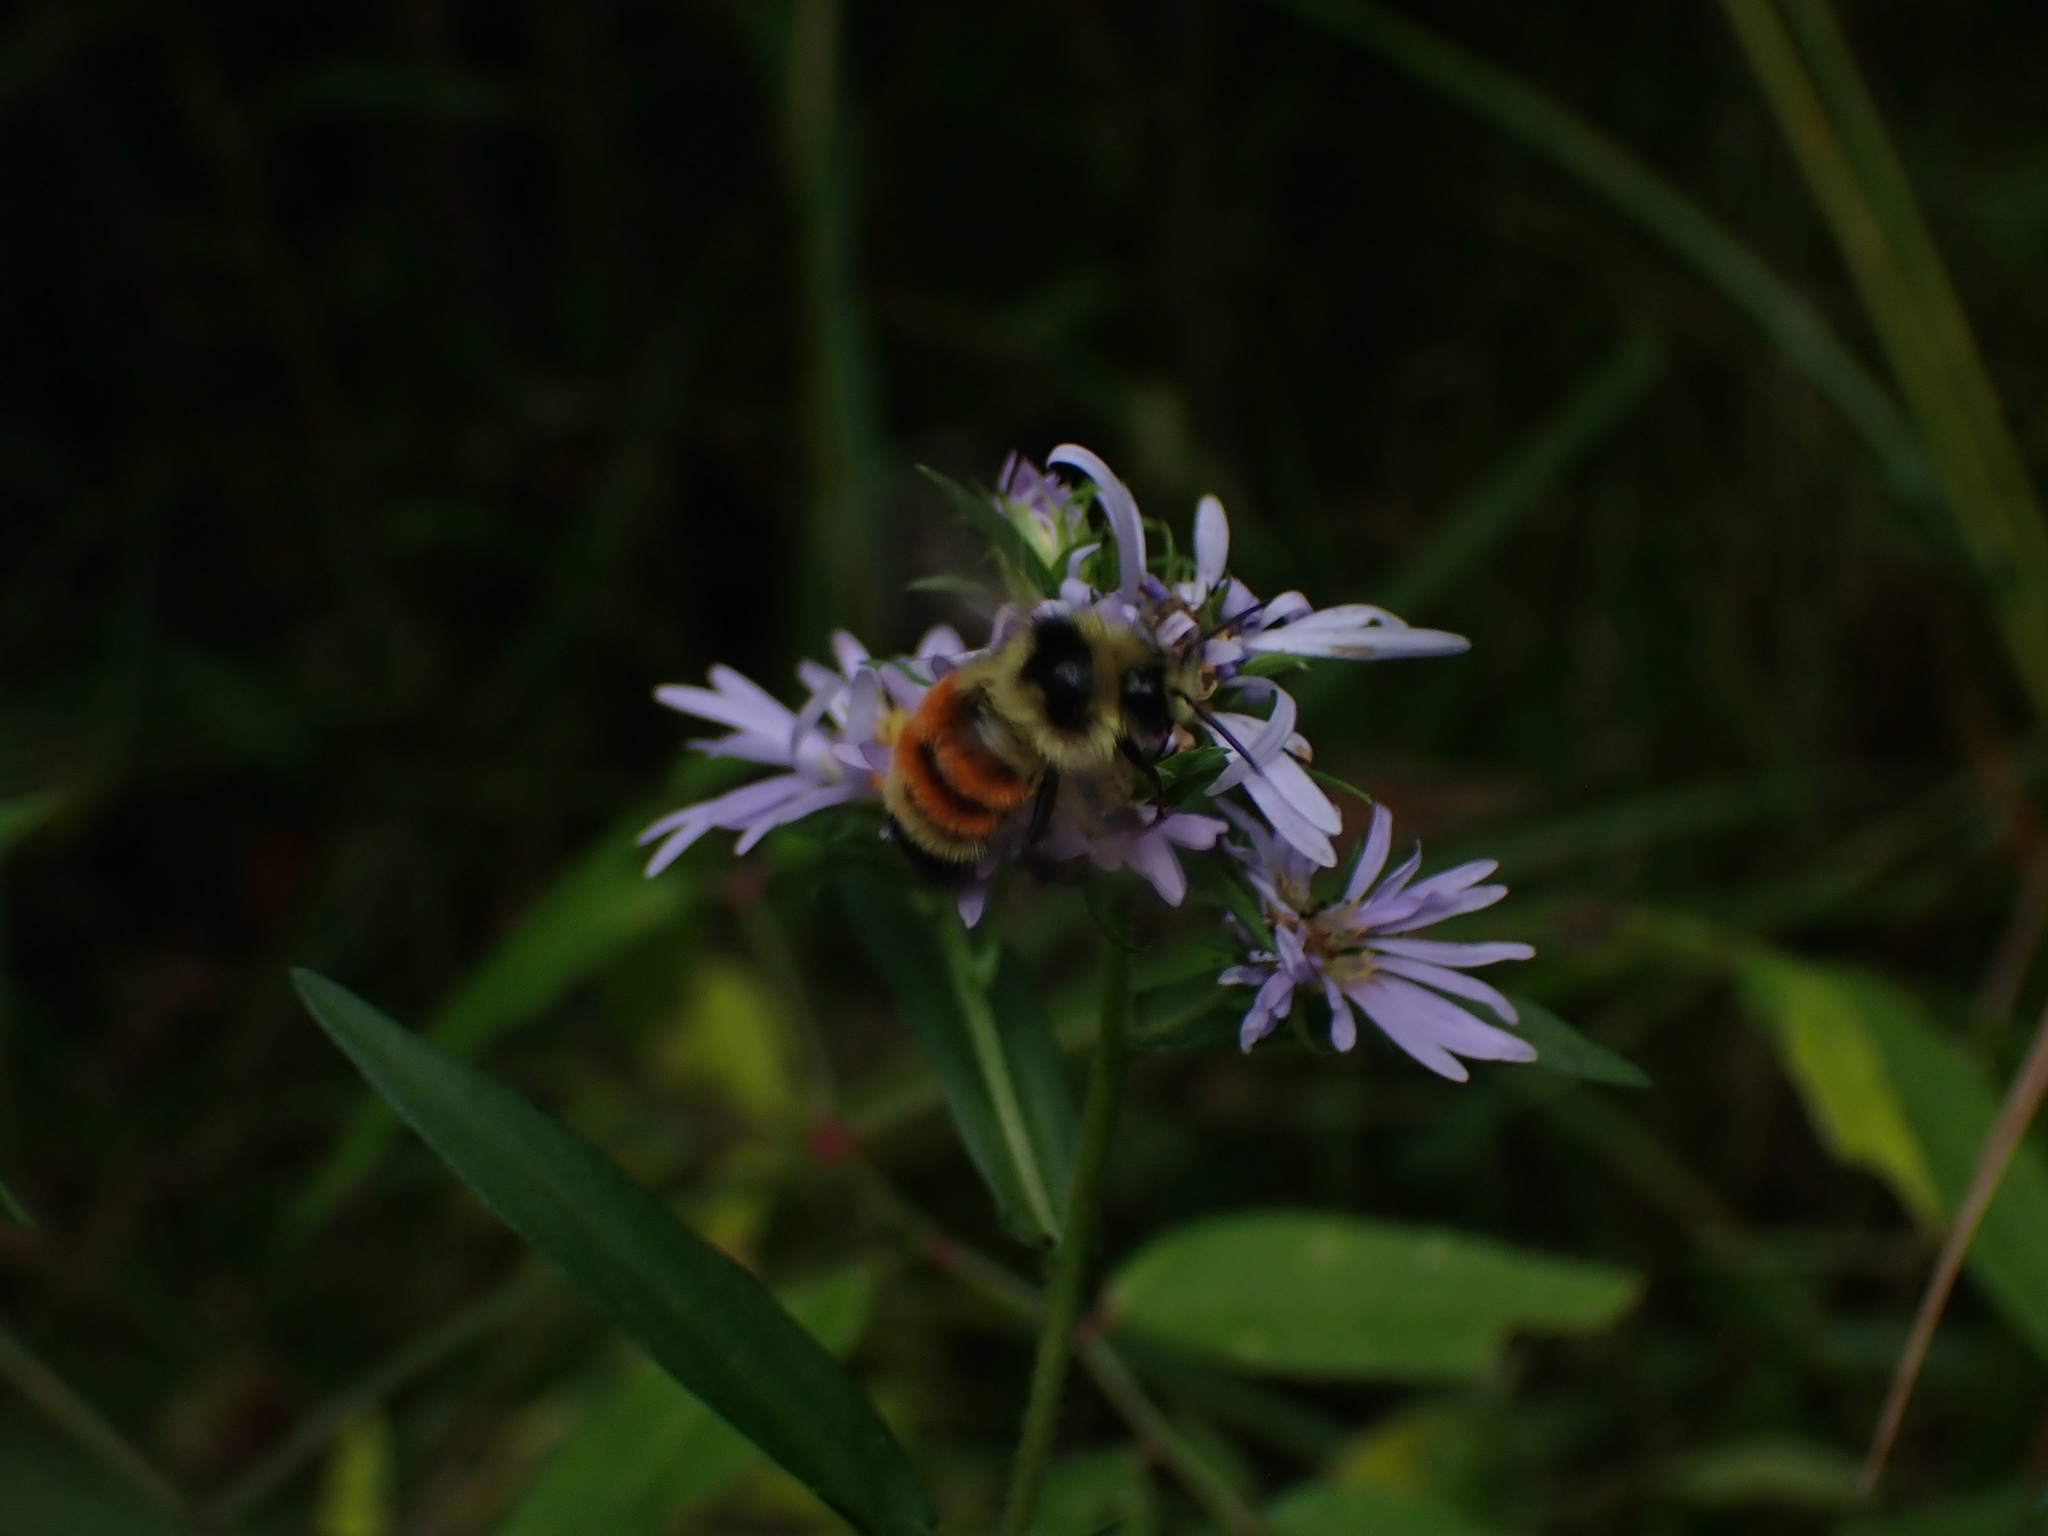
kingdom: Animalia
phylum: Arthropoda
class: Insecta
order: Hymenoptera
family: Apidae
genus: Bombus
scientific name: Bombus ternarius
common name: Tri-colored bumble bee
